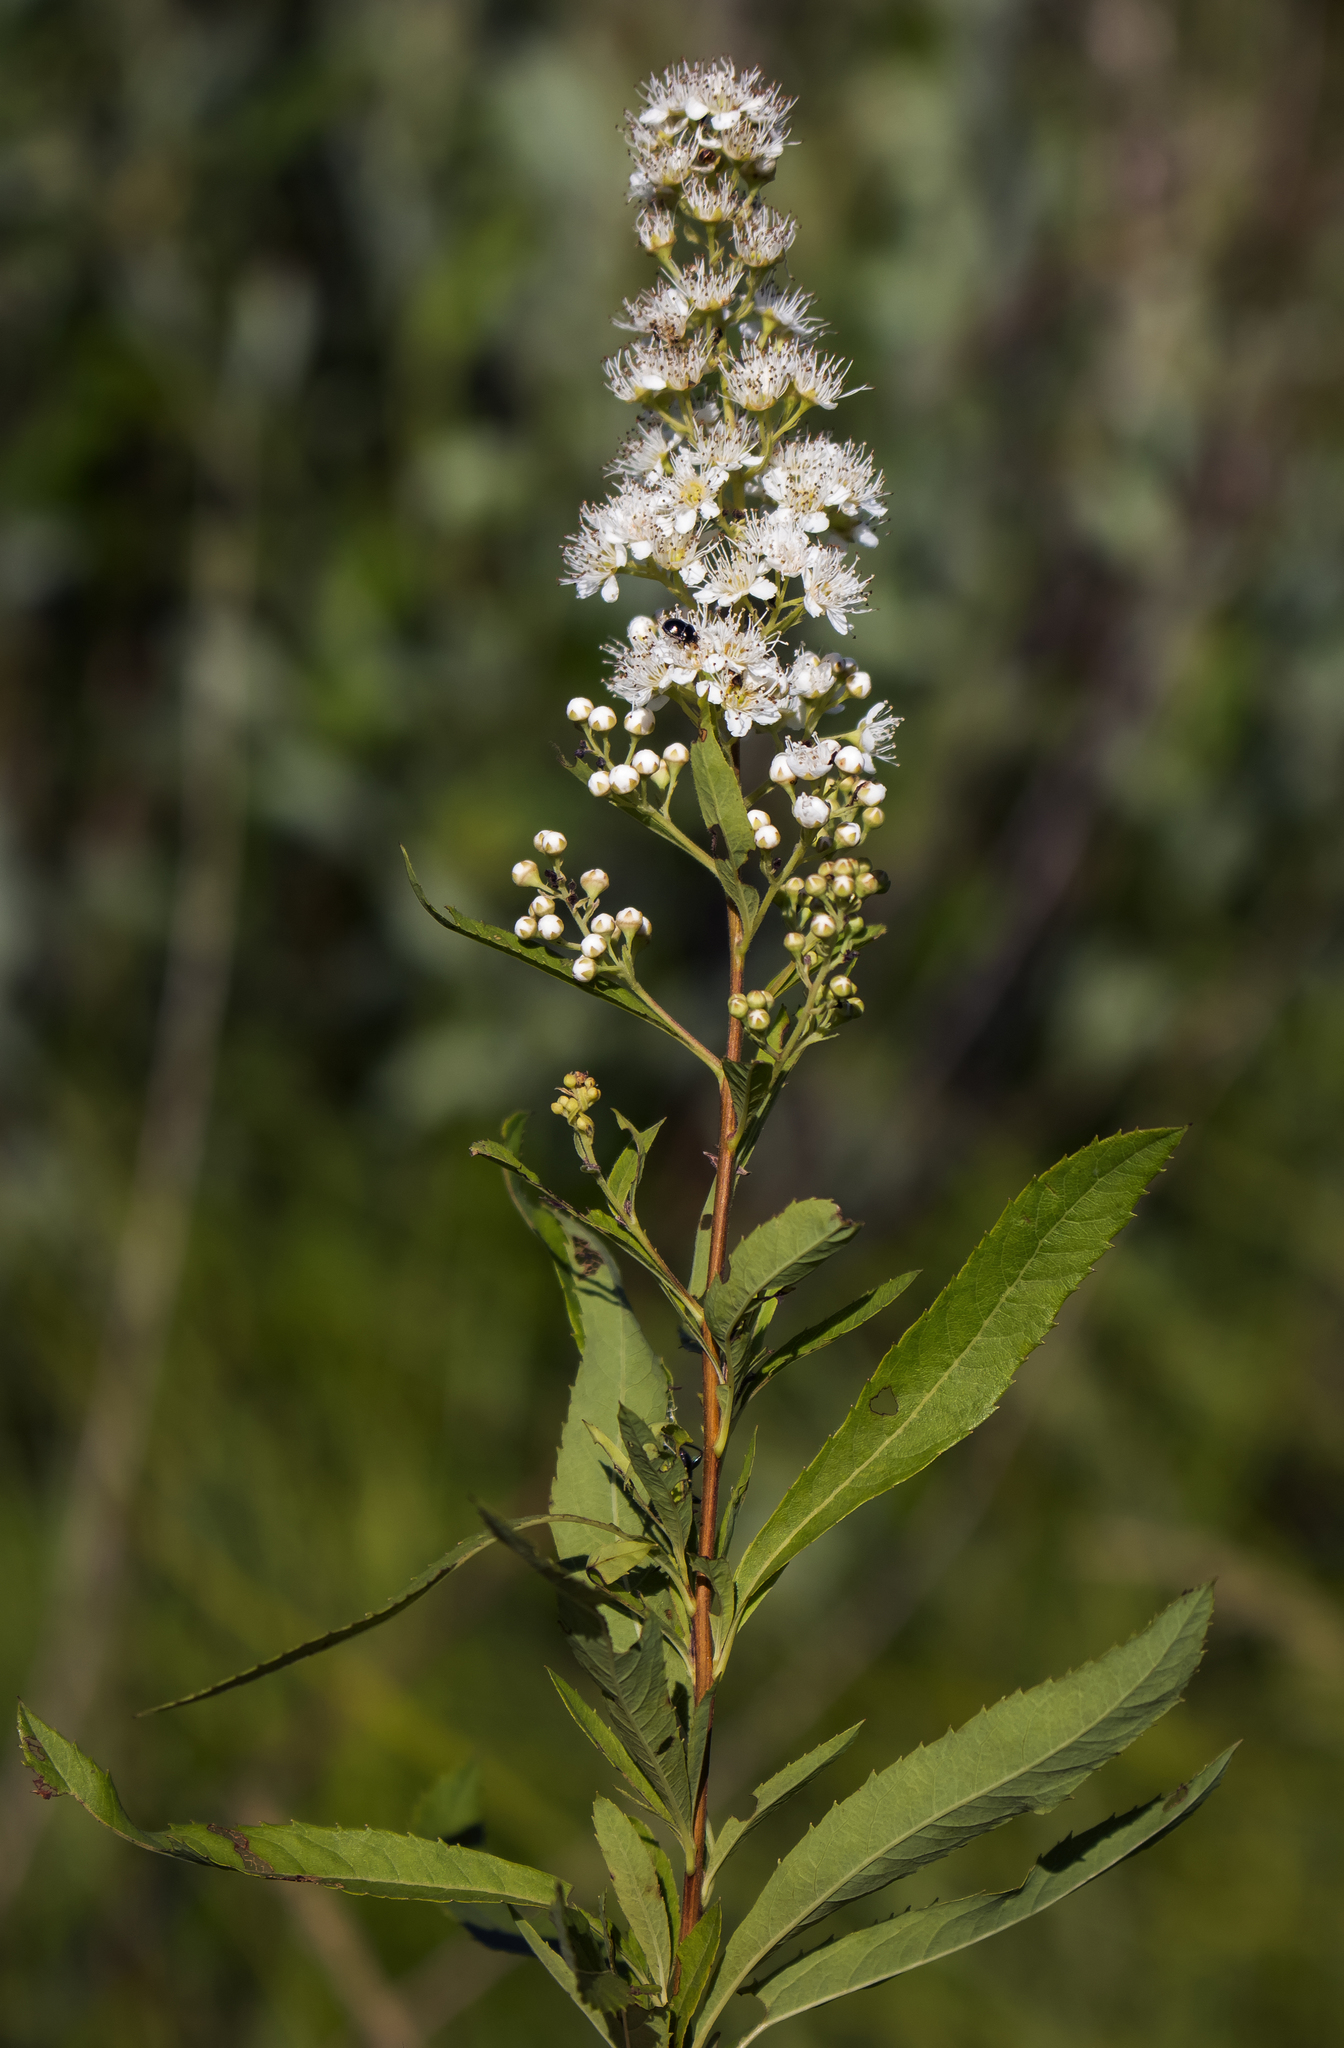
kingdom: Plantae
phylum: Tracheophyta
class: Magnoliopsida
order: Rosales
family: Rosaceae
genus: Spiraea
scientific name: Spiraea alba
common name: Pale bridewort
